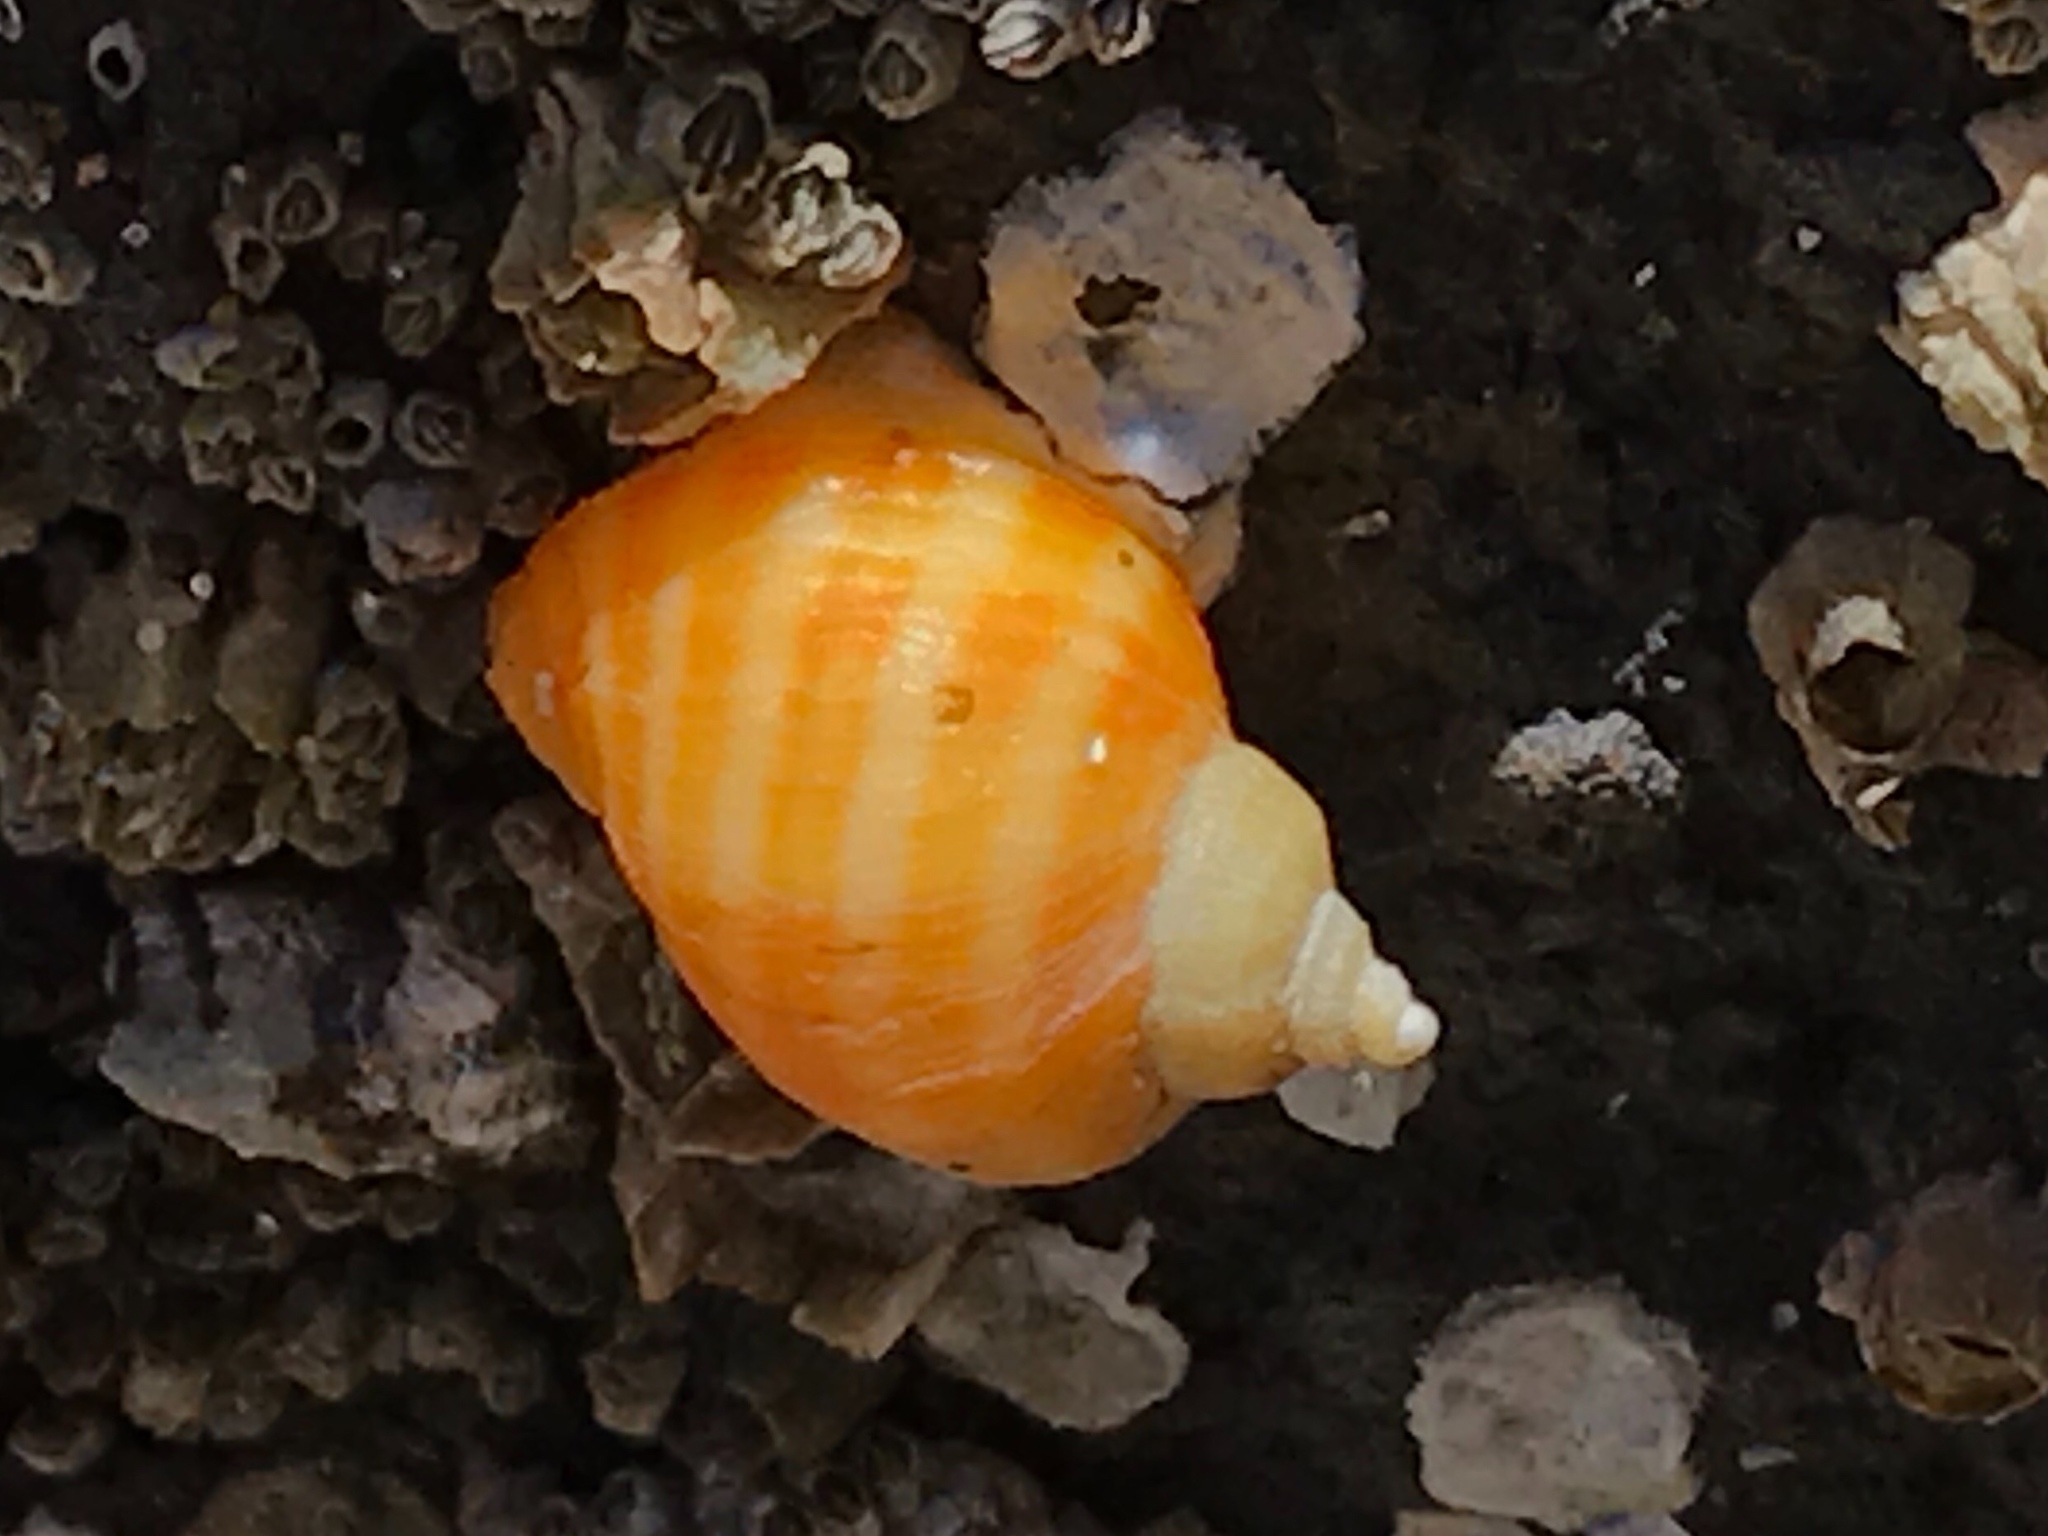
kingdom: Animalia
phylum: Mollusca
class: Gastropoda
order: Neogastropoda
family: Muricidae
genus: Nucella
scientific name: Nucella ostrina
